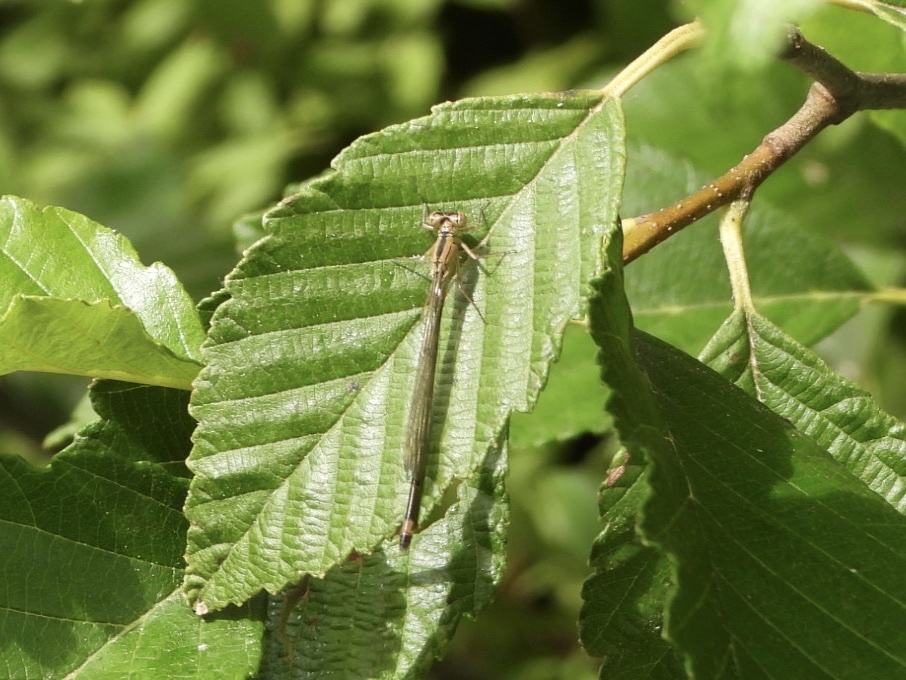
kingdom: Animalia
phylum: Arthropoda
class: Insecta
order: Odonata
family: Coenagrionidae
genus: Ischnura
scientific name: Ischnura cervula
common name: Pacific forktail
